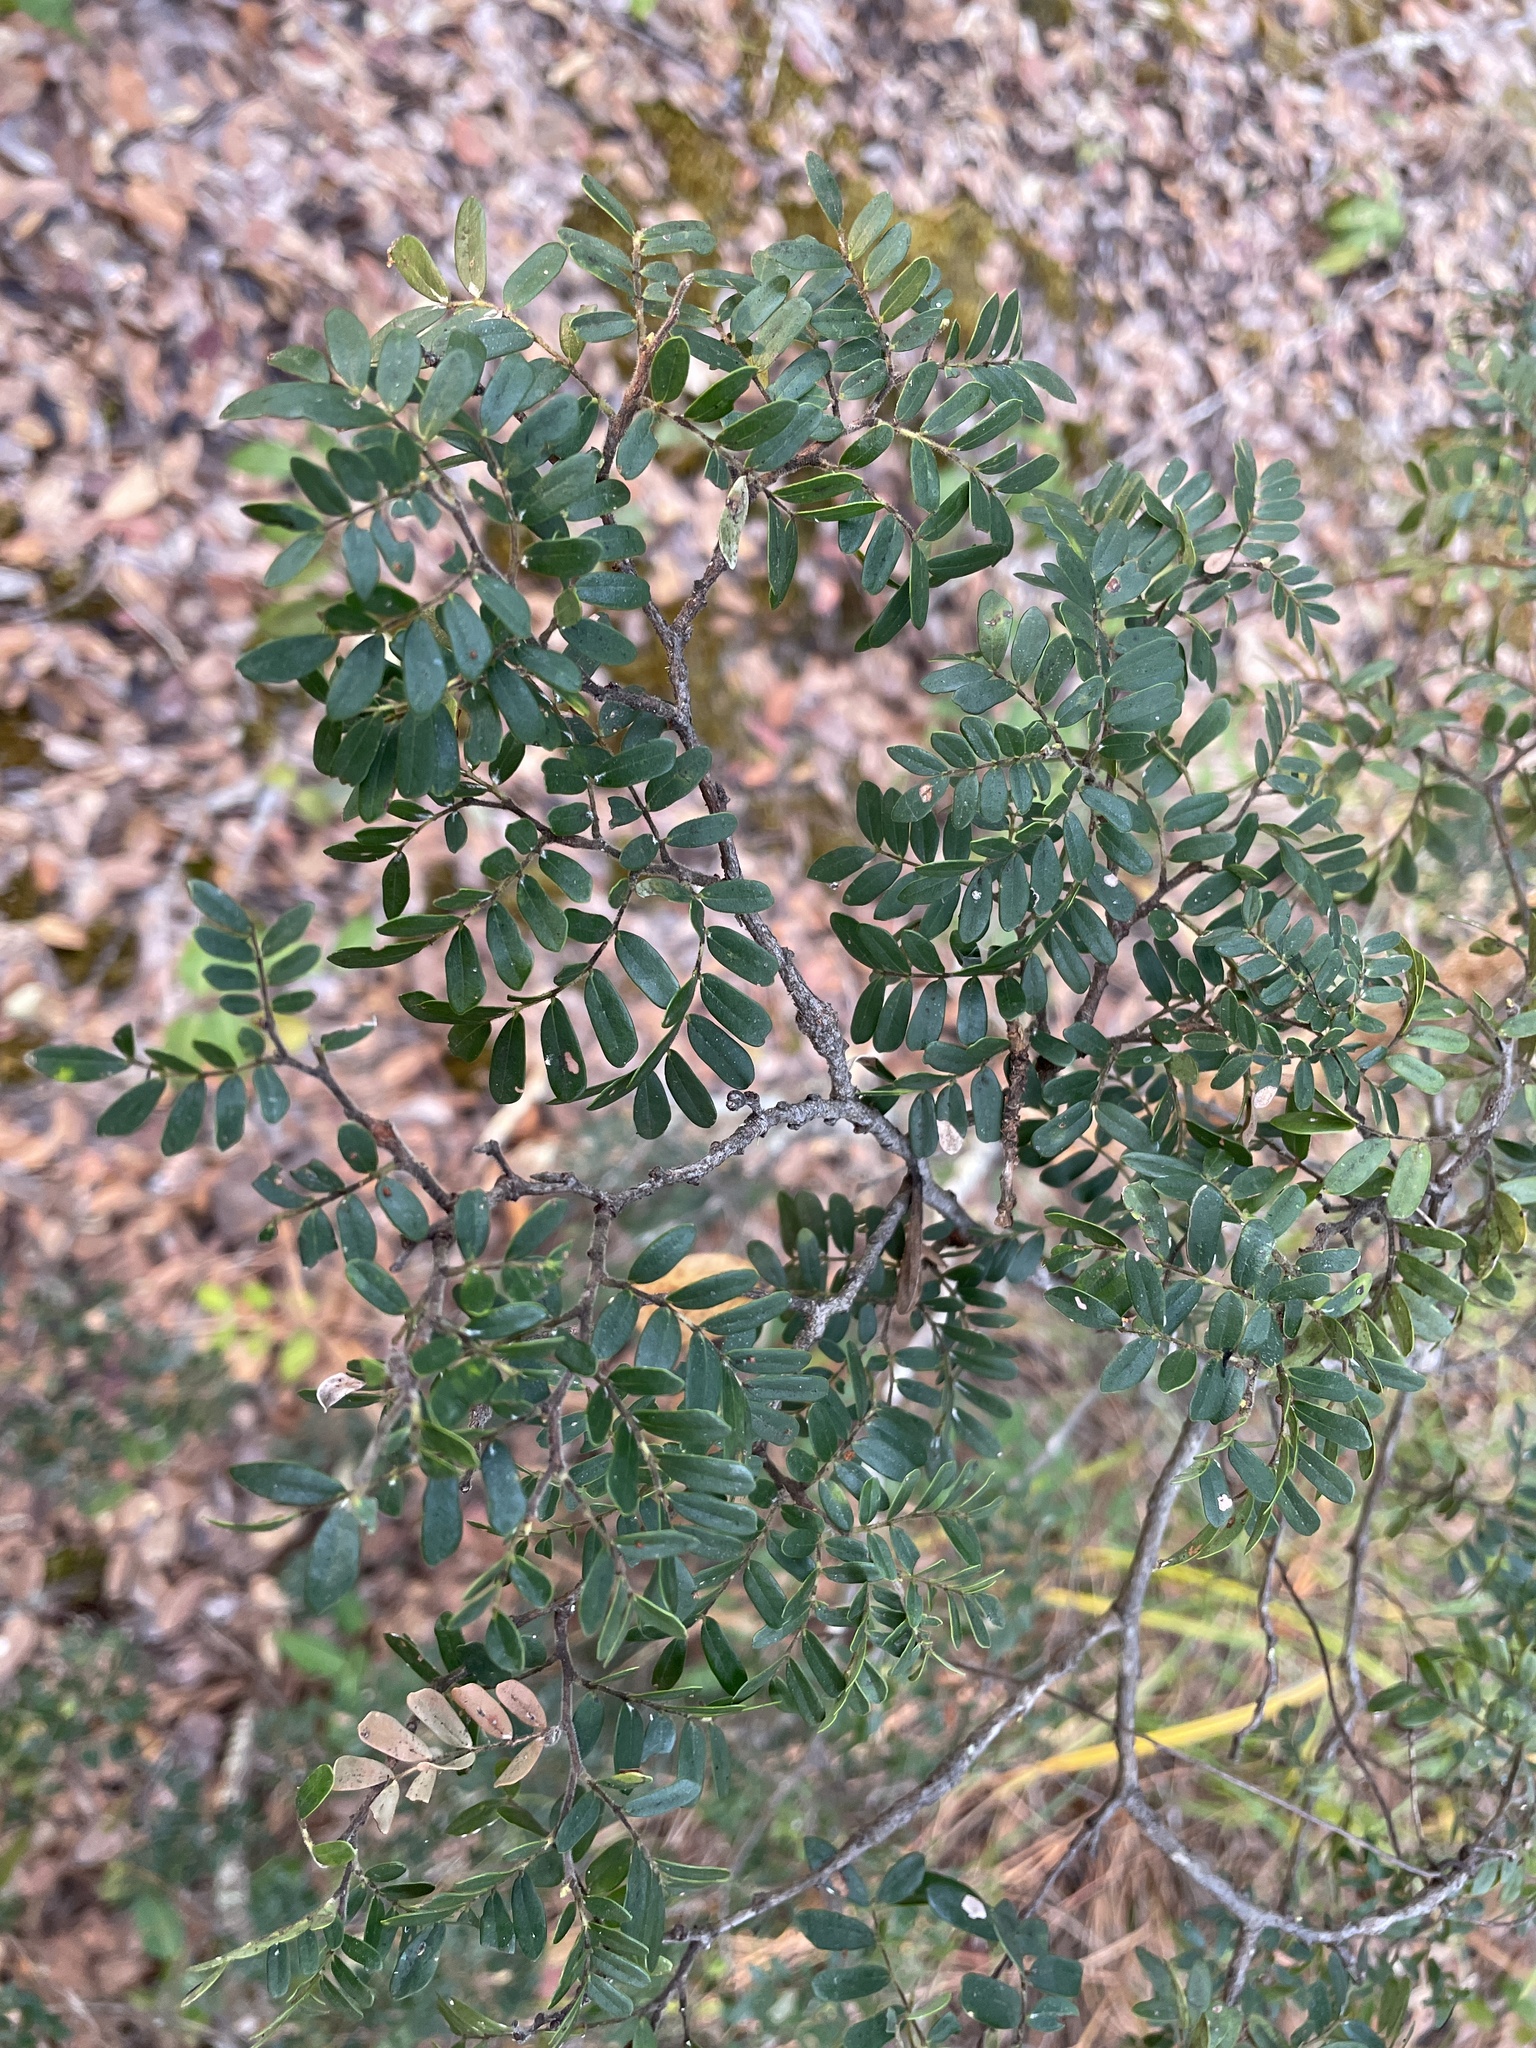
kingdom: Plantae
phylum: Tracheophyta
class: Magnoliopsida
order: Fabales
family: Fabaceae
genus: Cryptosepalum
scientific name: Cryptosepalum exfoliatum
